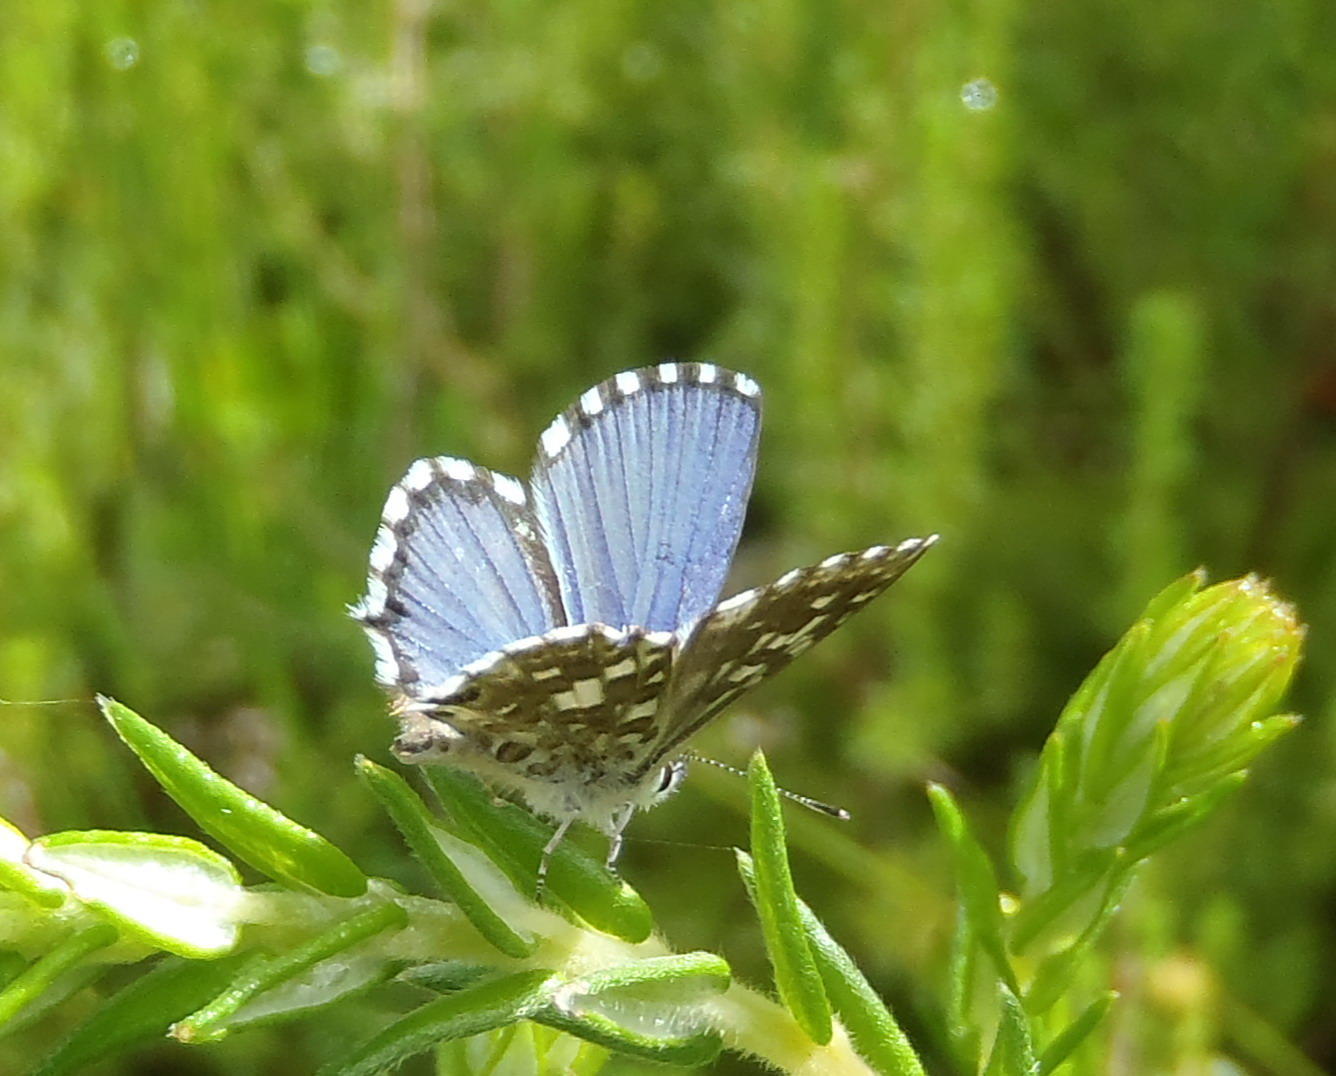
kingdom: Animalia
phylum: Arthropoda
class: Insecta
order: Lepidoptera
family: Lycaenidae
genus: Tarucus
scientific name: Tarucus thespis
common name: Vivid dotted blue
